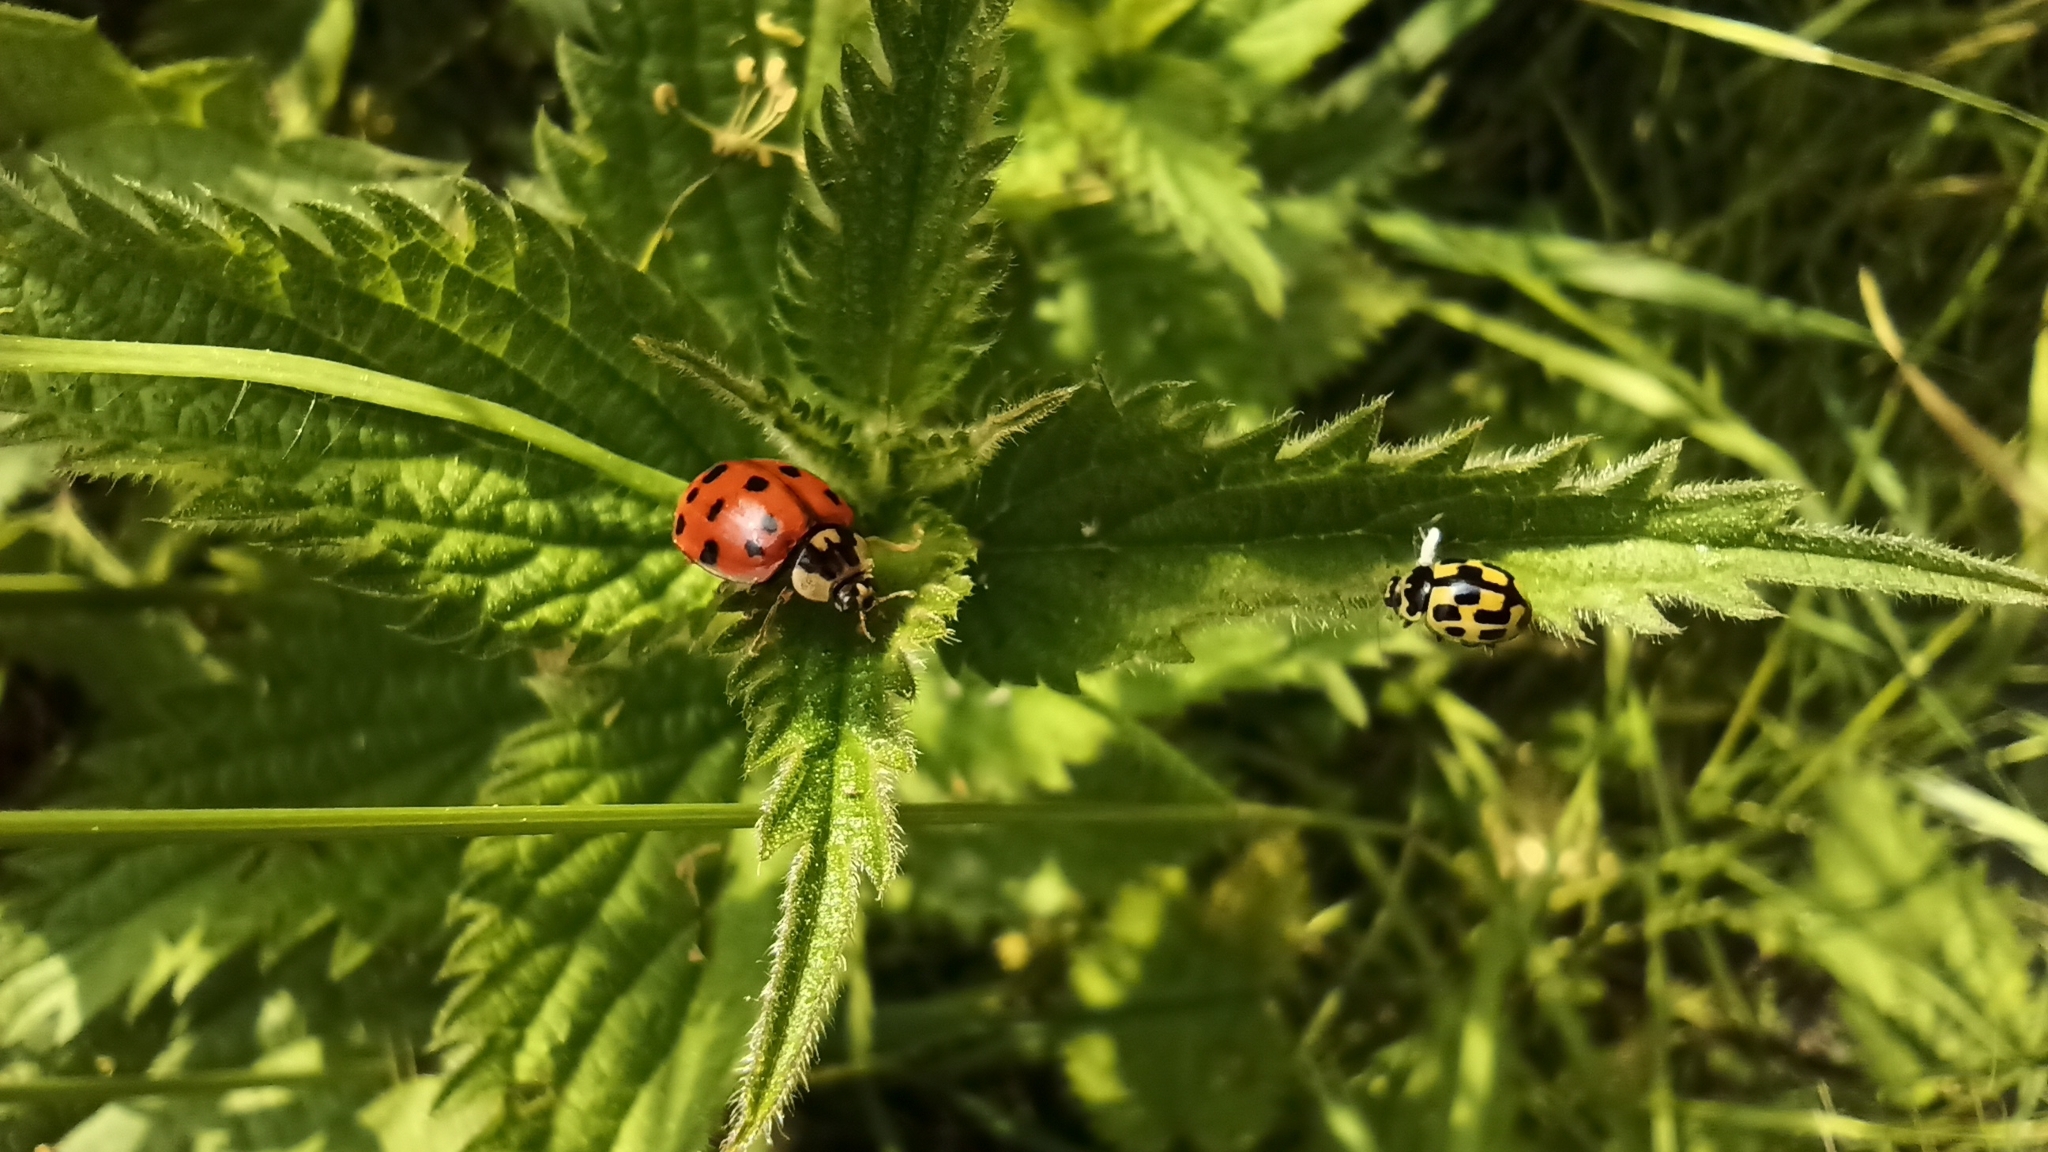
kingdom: Animalia
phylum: Arthropoda
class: Insecta
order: Coleoptera
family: Coccinellidae
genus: Propylaea
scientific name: Propylaea quatuordecimpunctata
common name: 14-spotted ladybird beetle
